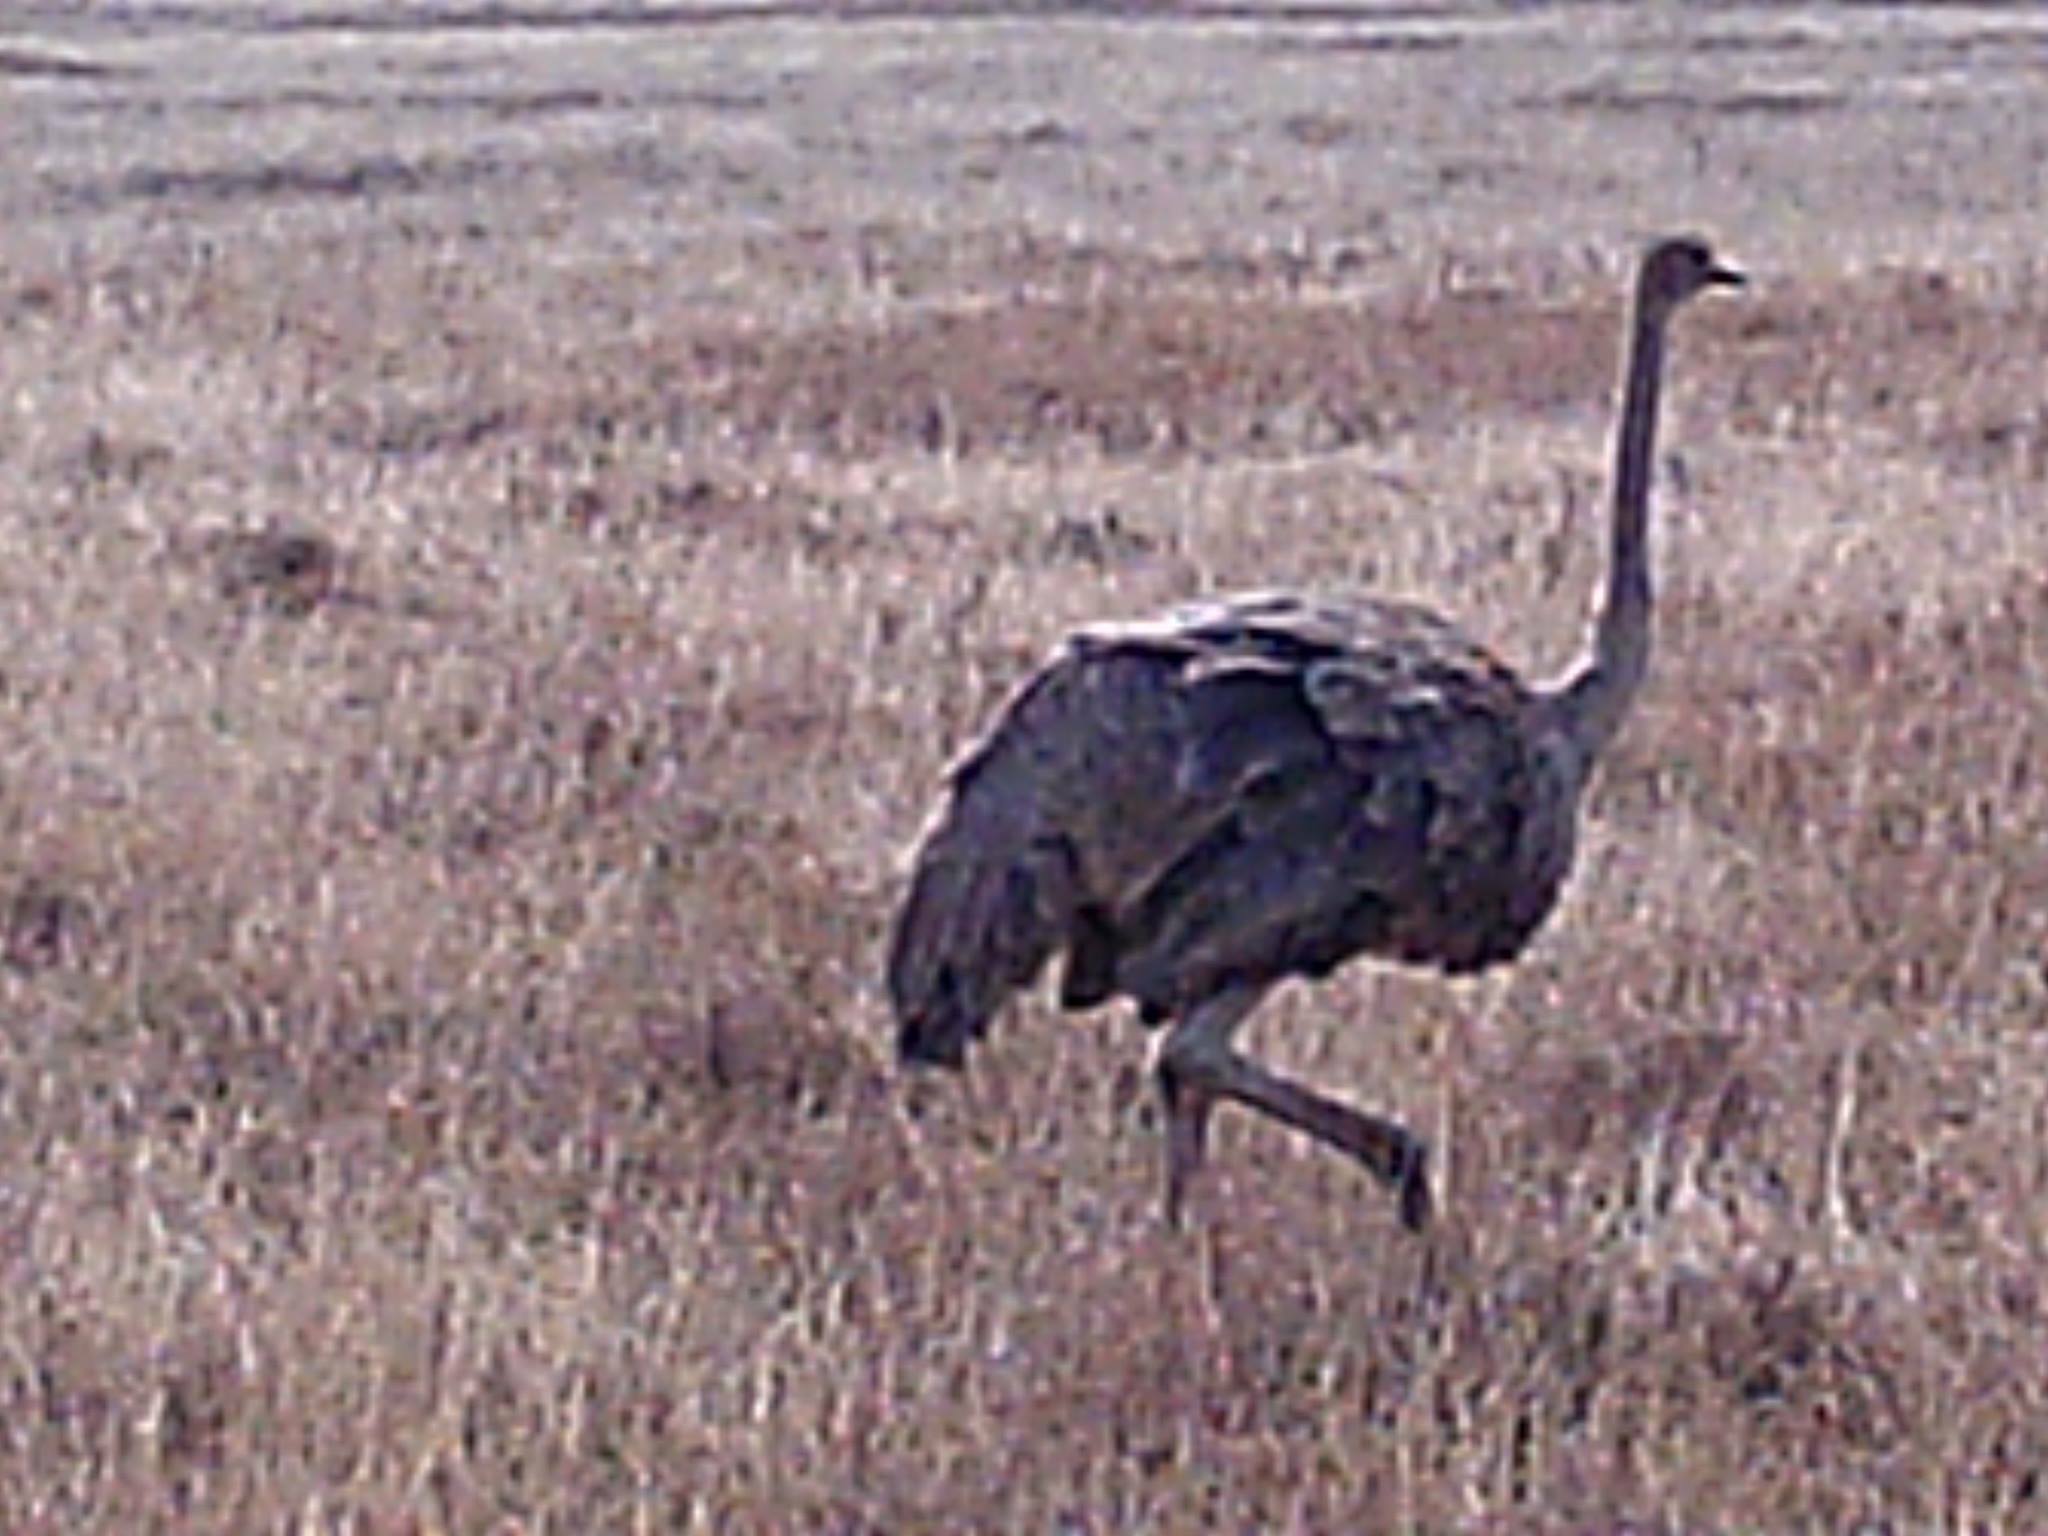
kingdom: Animalia
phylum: Chordata
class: Aves
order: Struthioniformes
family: Struthionidae
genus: Struthio
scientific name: Struthio camelus
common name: Common ostrich
